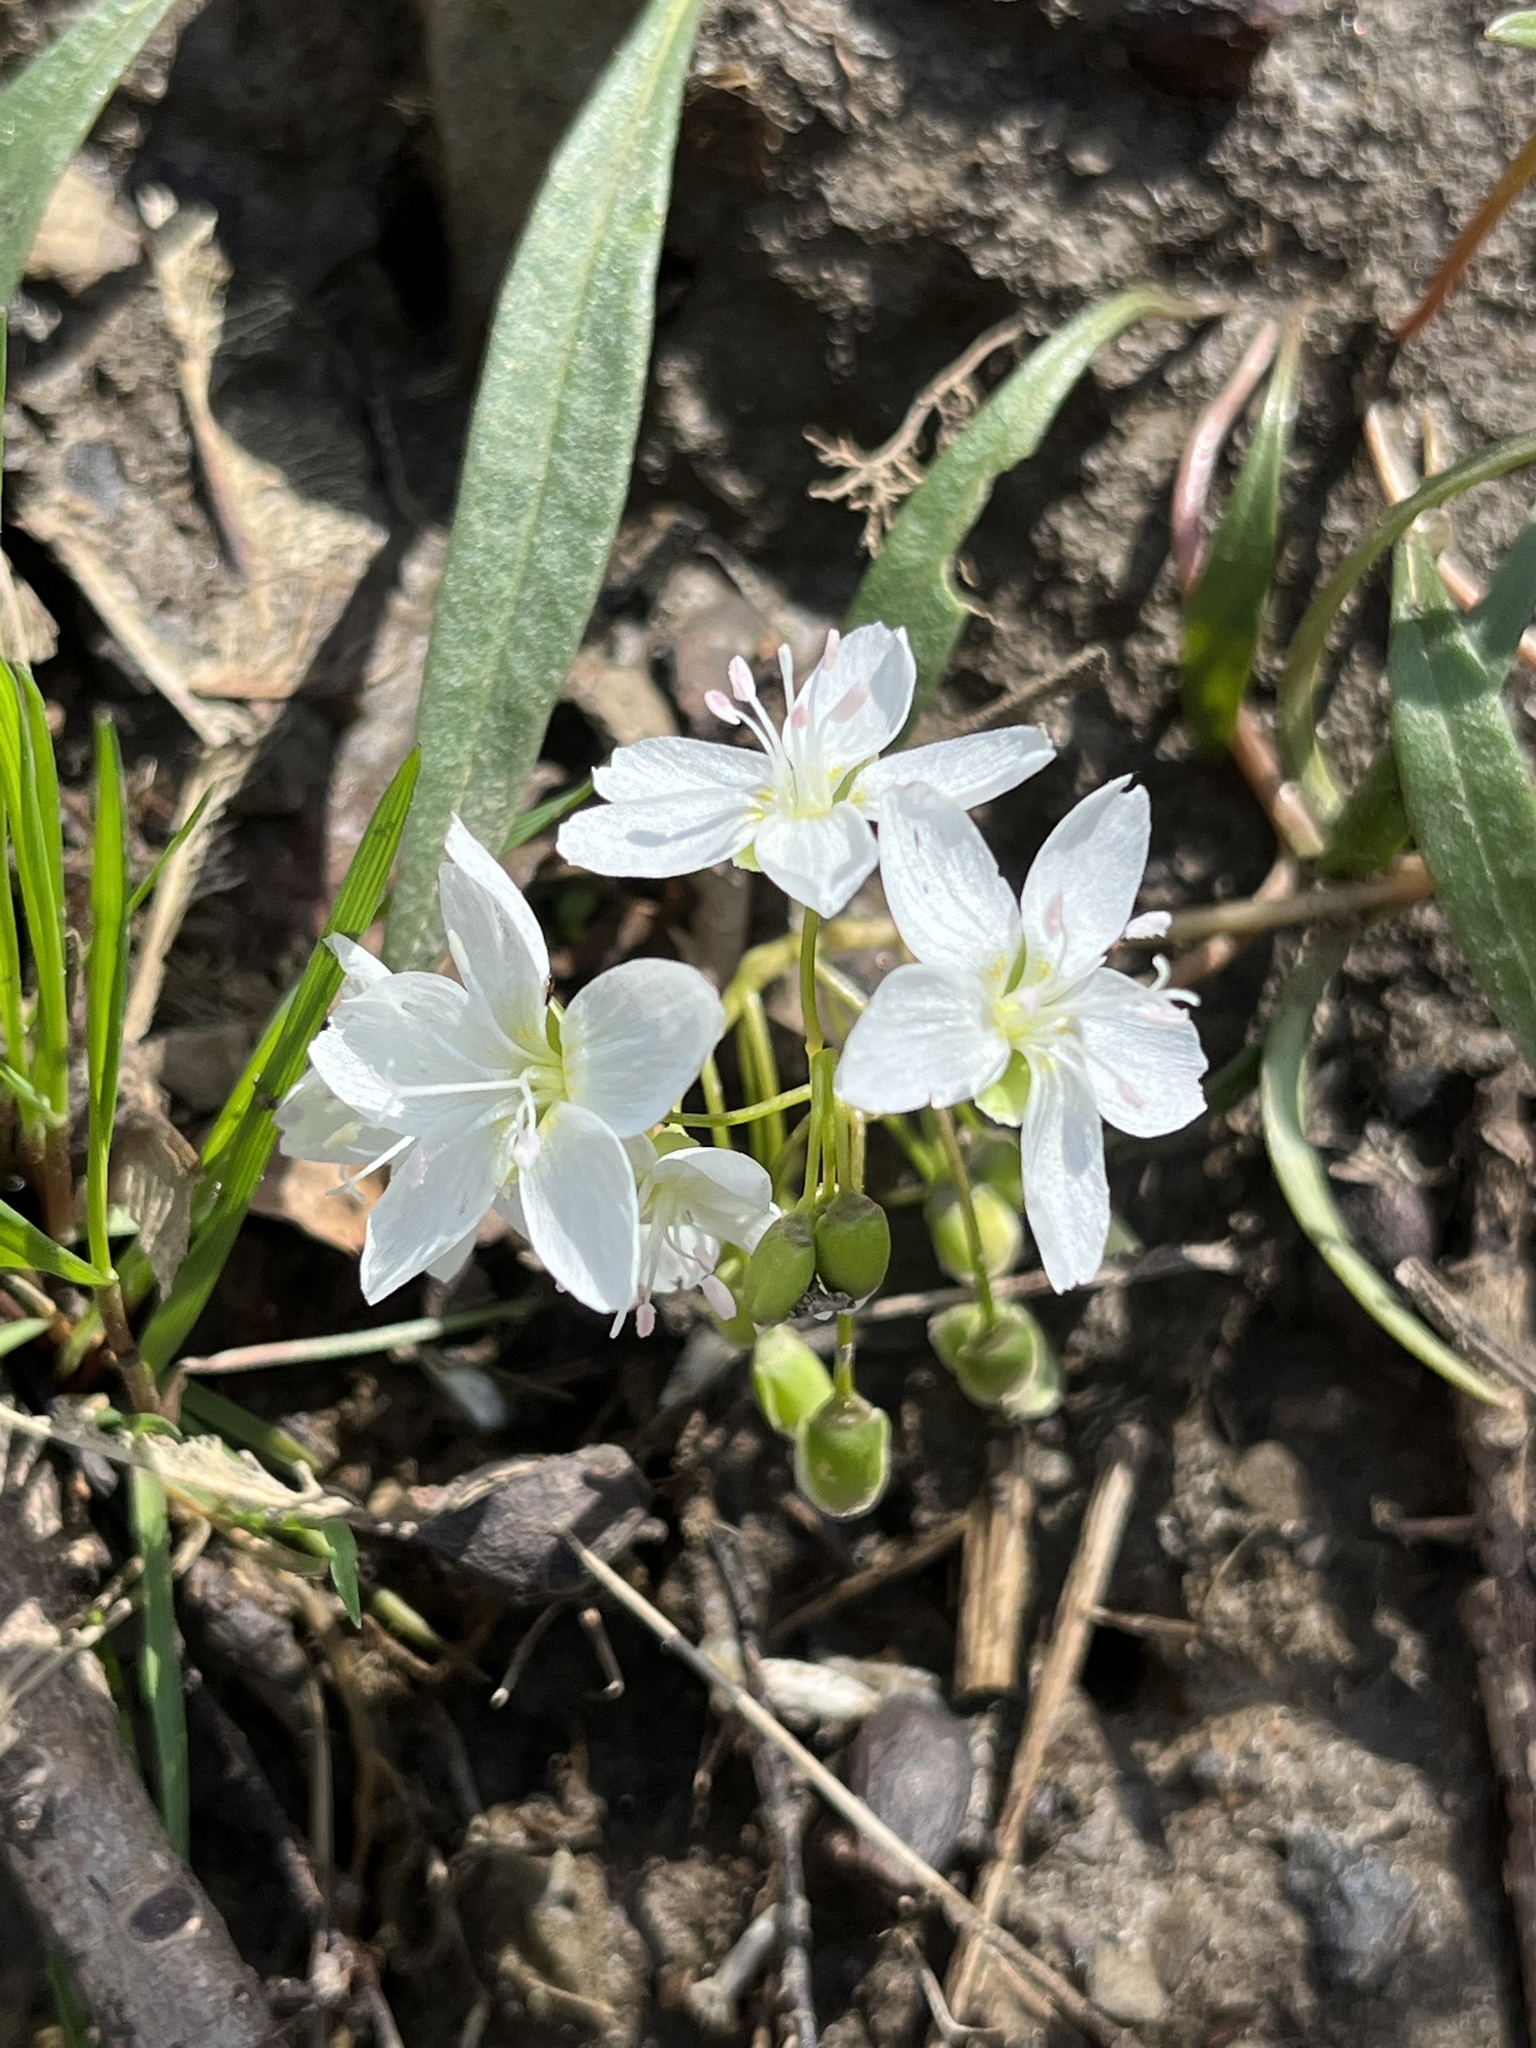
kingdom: Plantae
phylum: Tracheophyta
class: Magnoliopsida
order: Caryophyllales
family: Montiaceae
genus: Claytonia
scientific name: Claytonia virginica
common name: Virginia springbeauty
